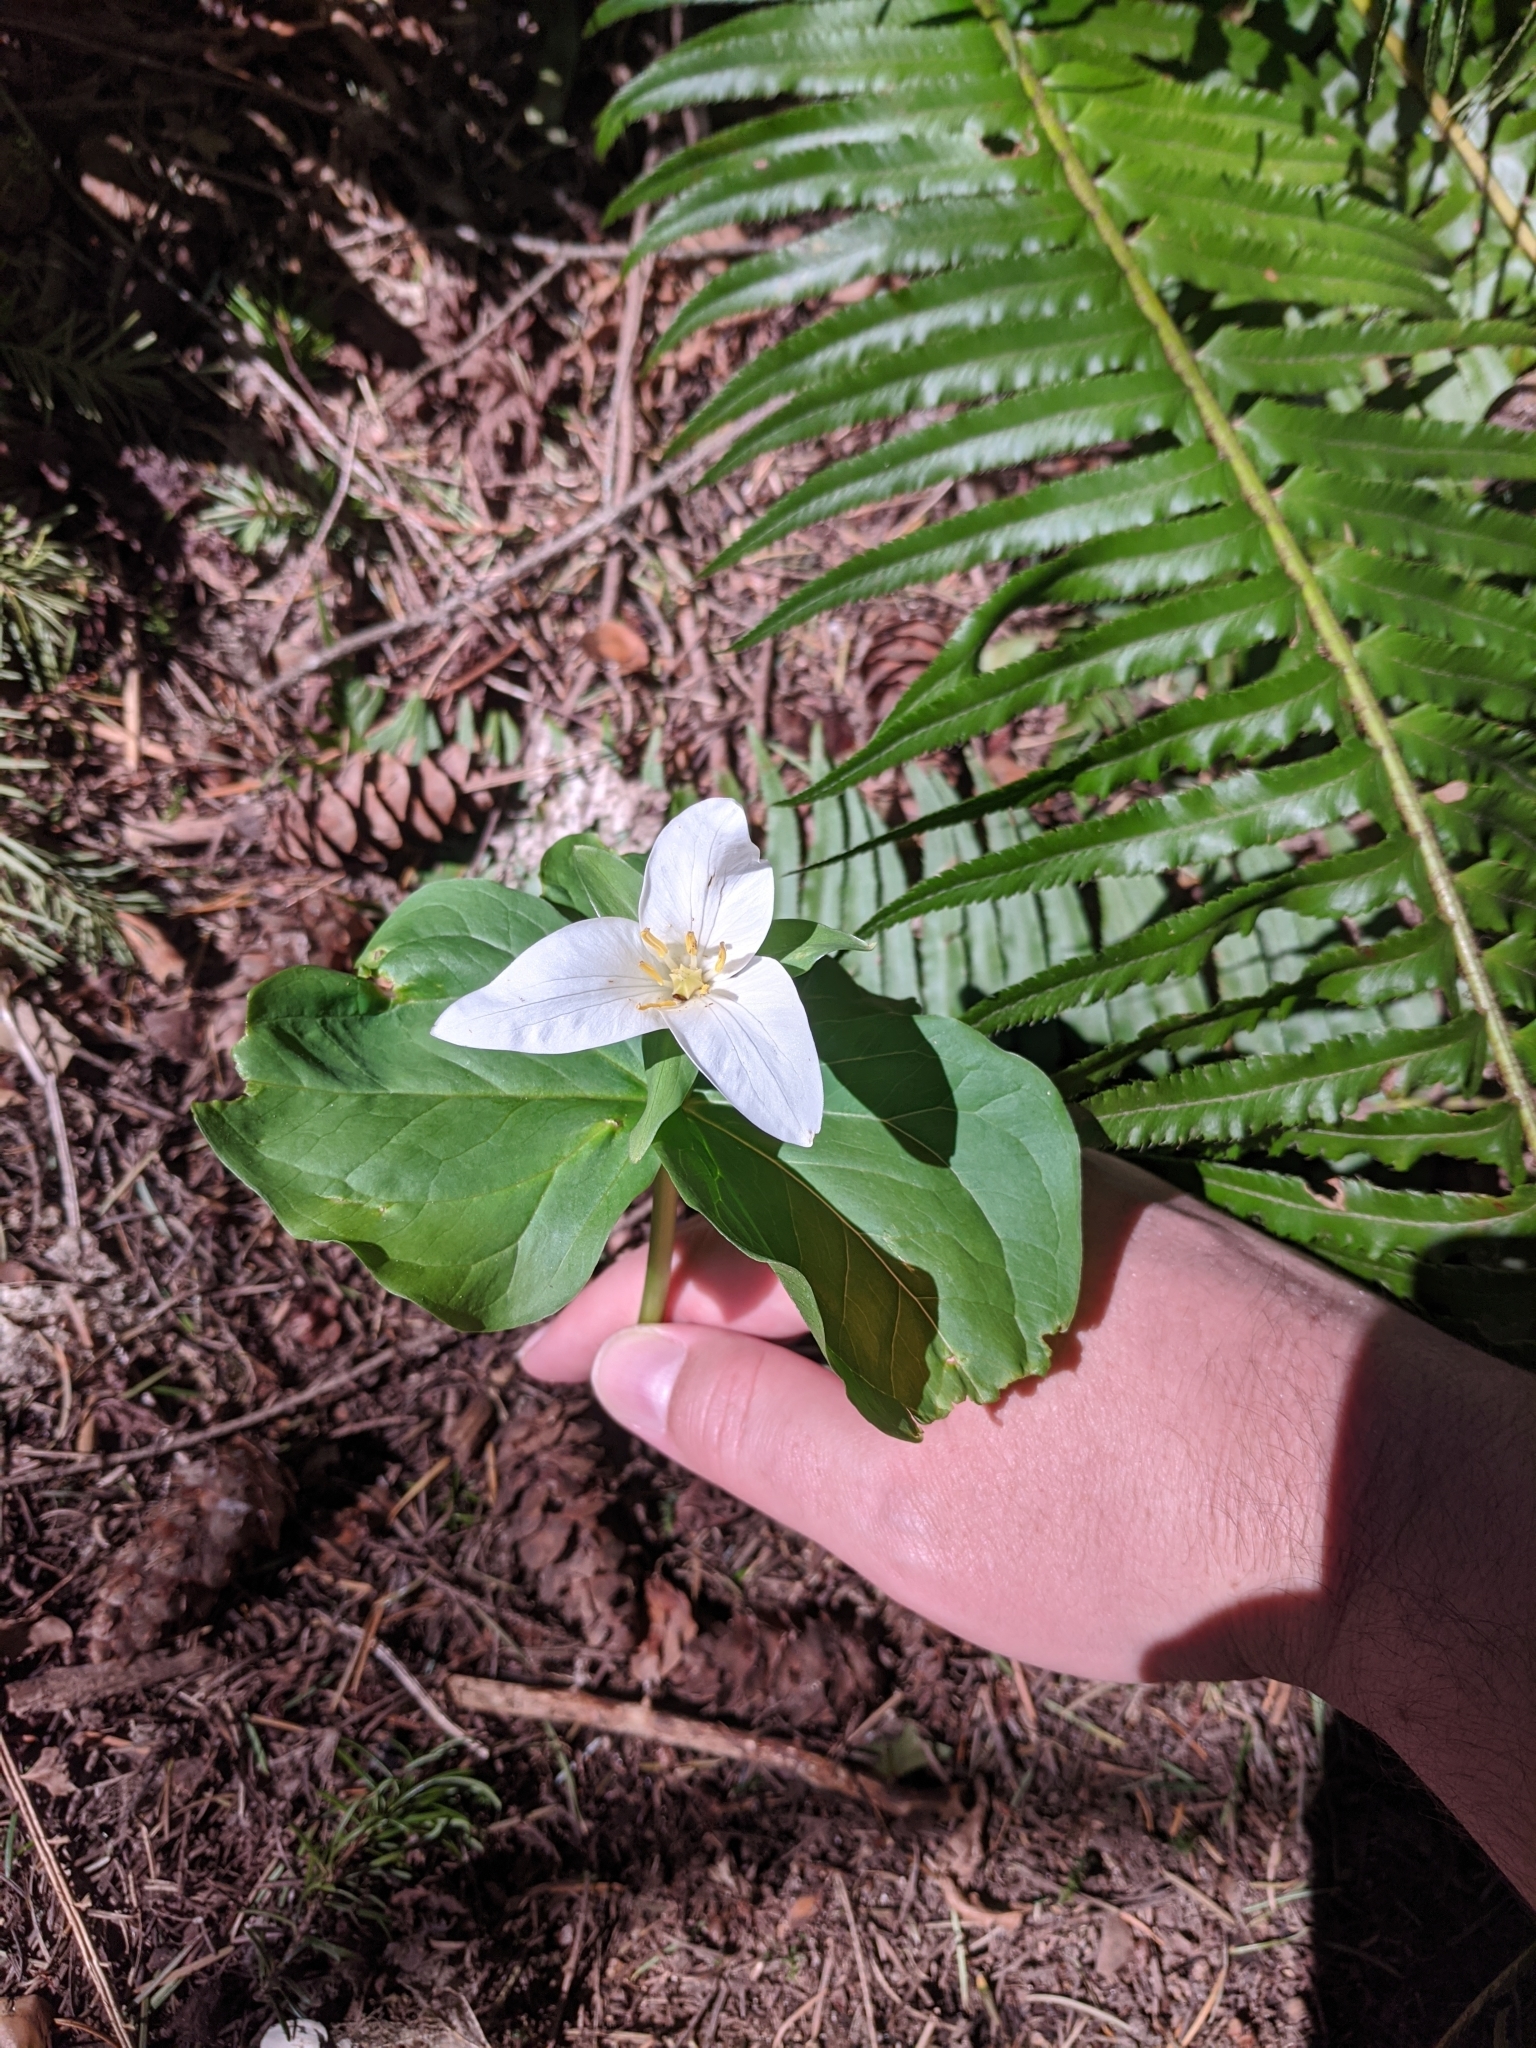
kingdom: Plantae
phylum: Tracheophyta
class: Liliopsida
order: Liliales
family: Melanthiaceae
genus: Trillium
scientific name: Trillium ovatum
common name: Pacific trillium
